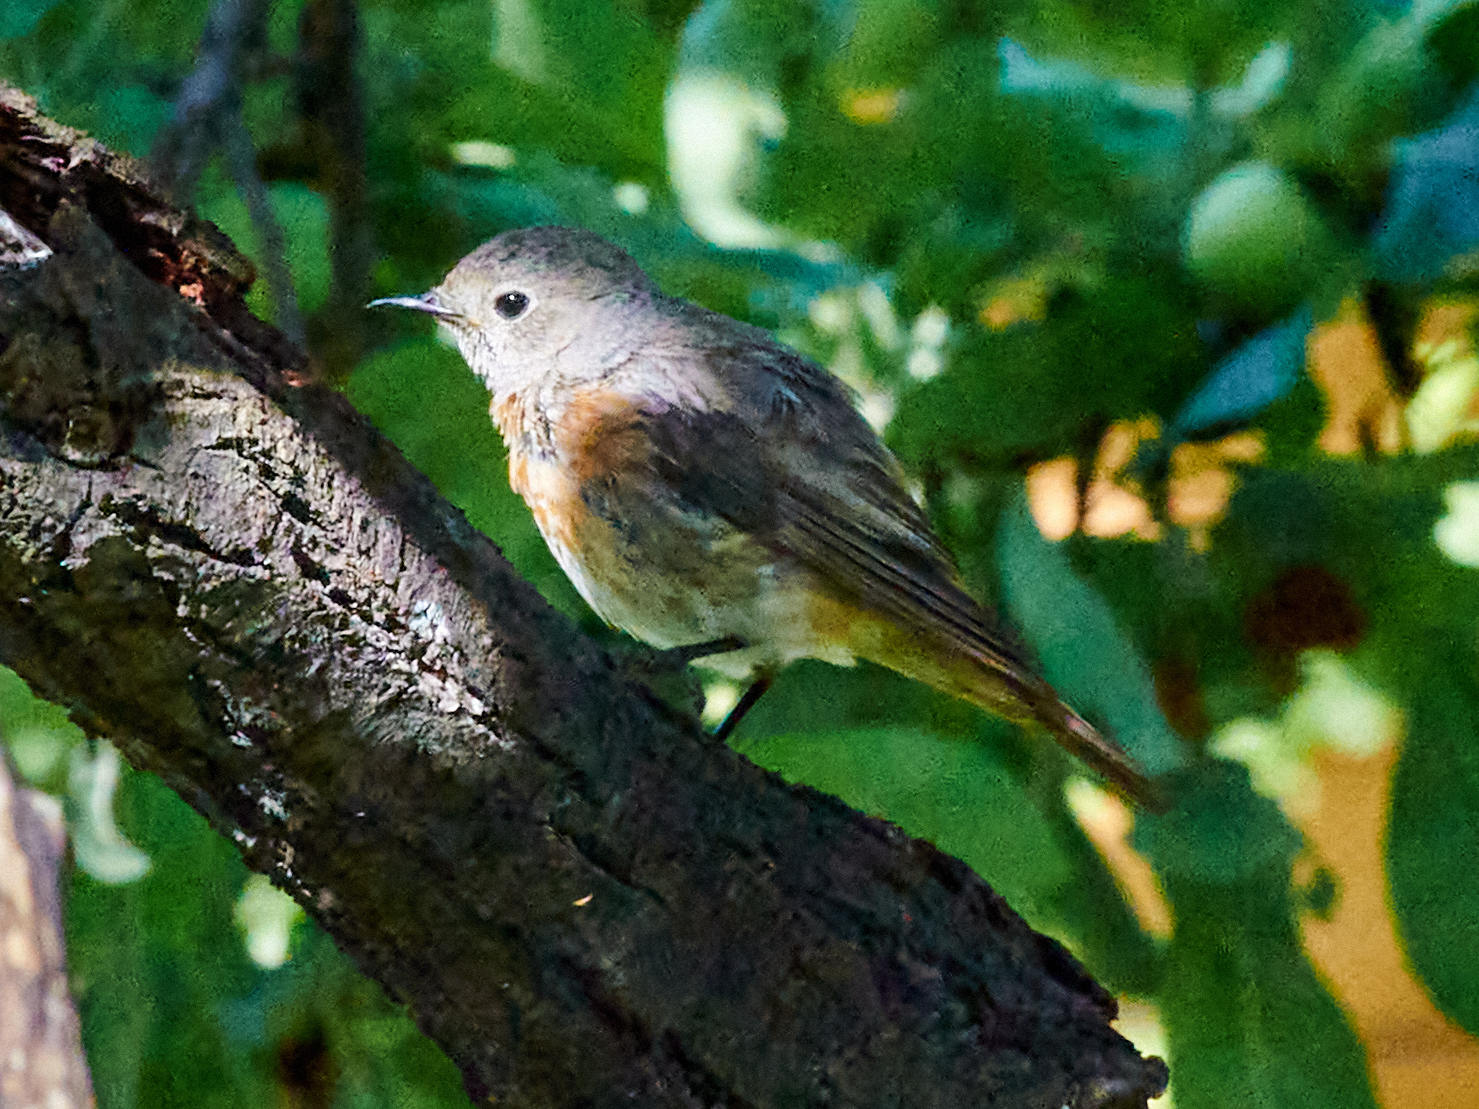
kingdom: Animalia
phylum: Chordata
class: Aves
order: Passeriformes
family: Muscicapidae
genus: Phoenicurus
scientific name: Phoenicurus phoenicurus
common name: Common redstart
